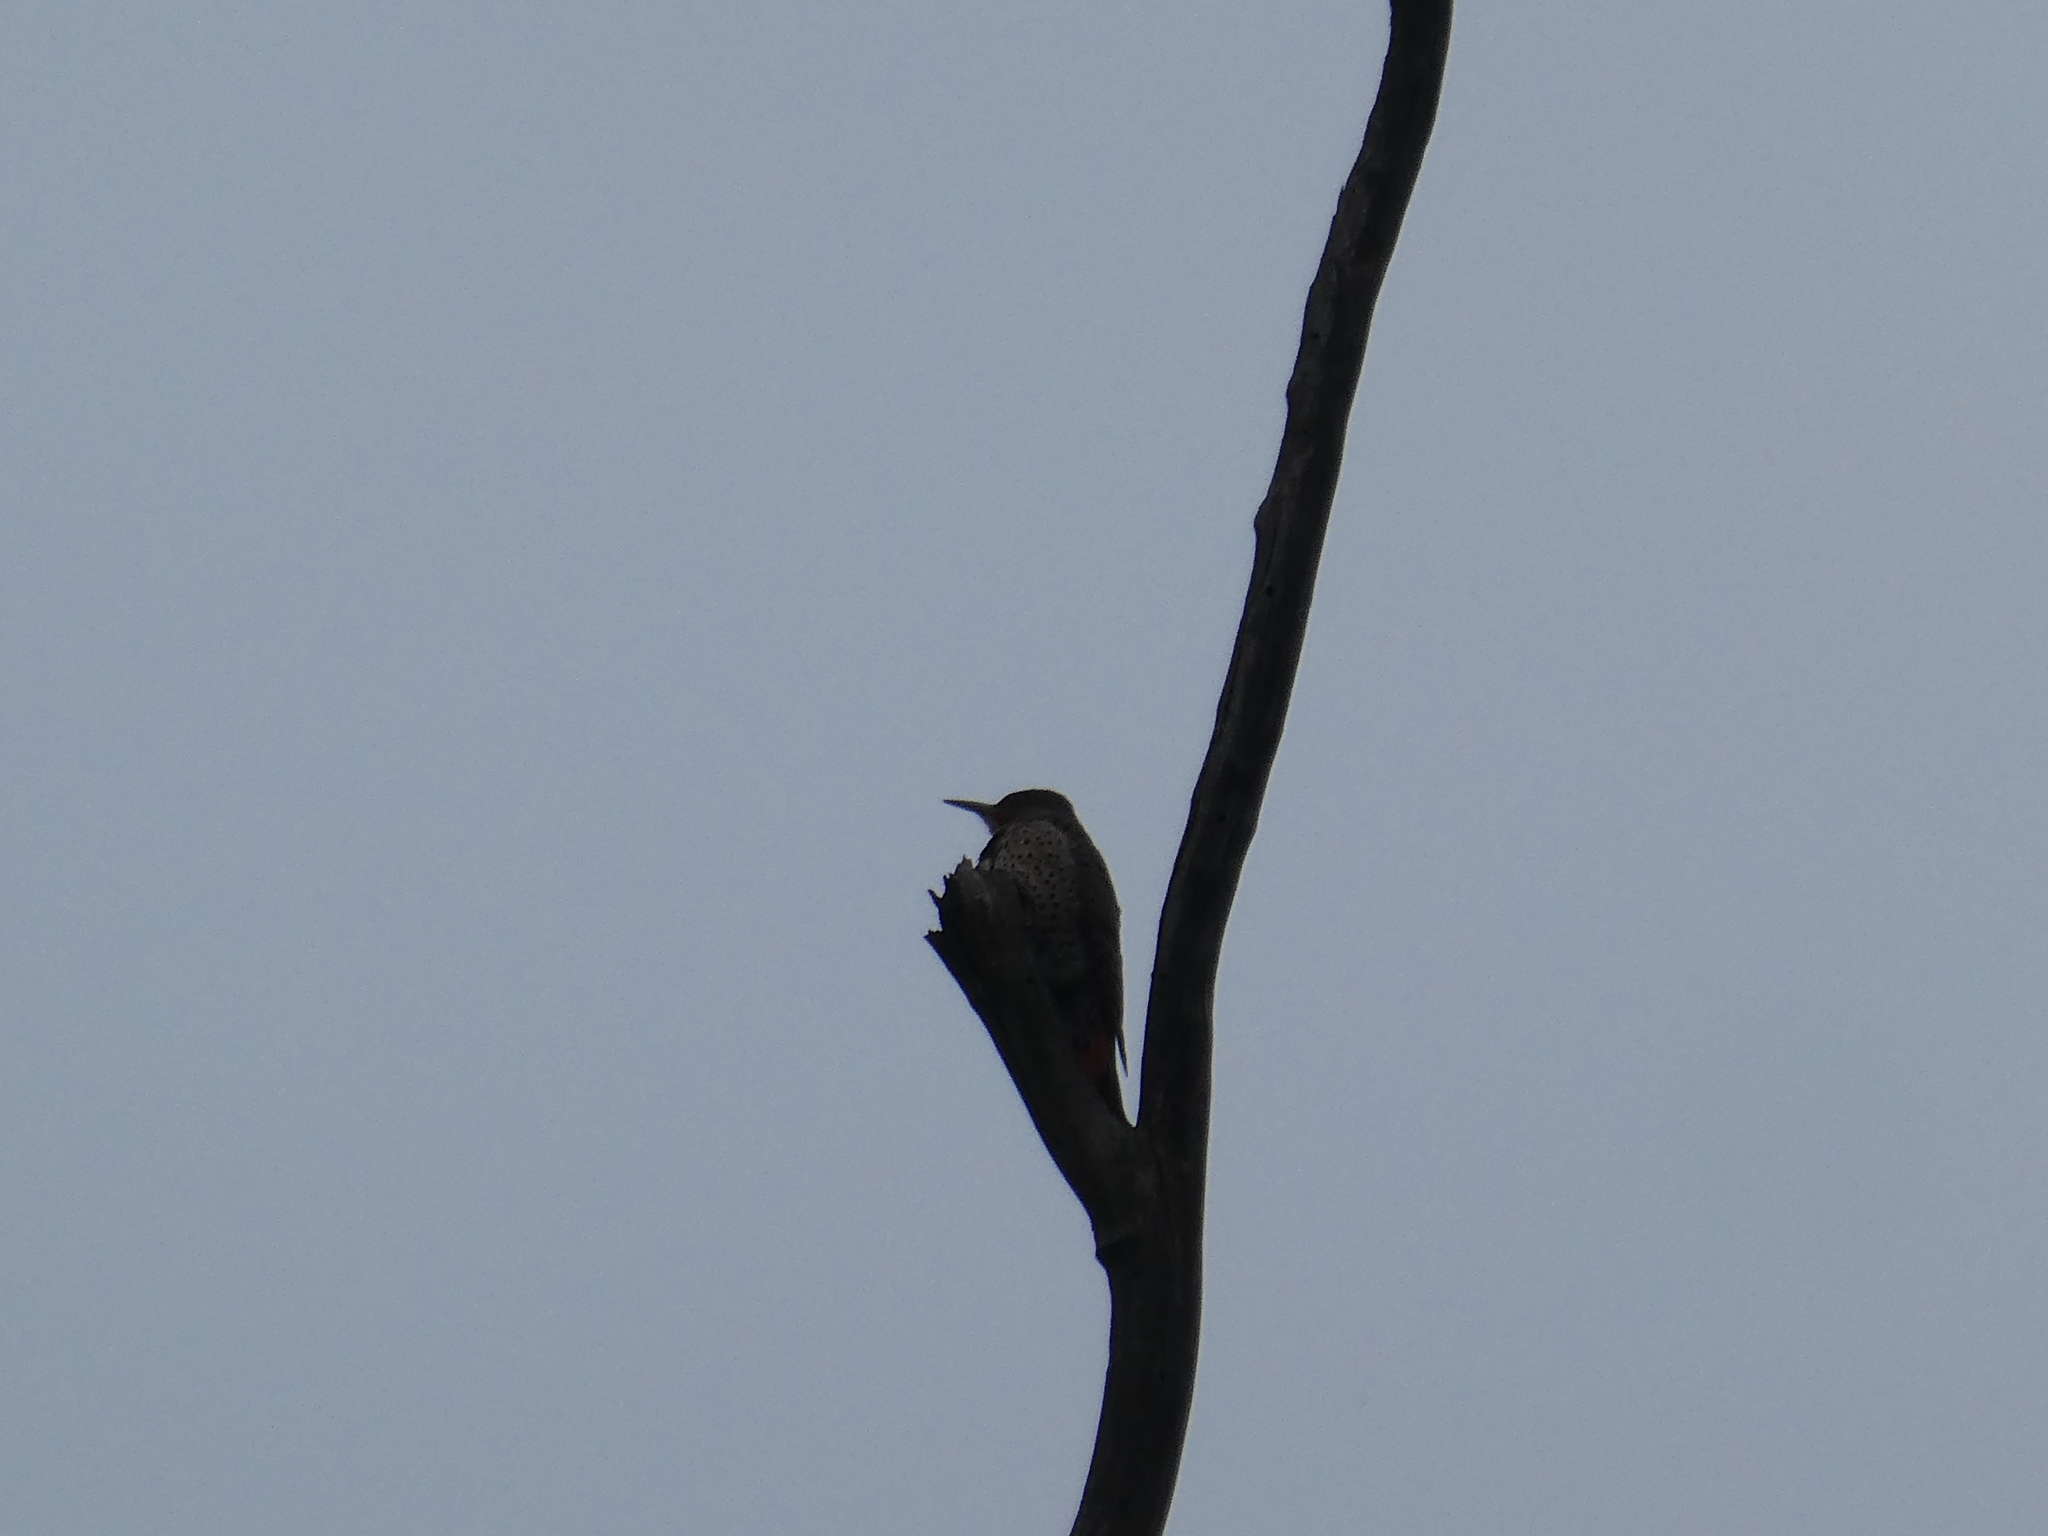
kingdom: Animalia
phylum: Chordata
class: Aves
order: Piciformes
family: Picidae
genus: Colaptes
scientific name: Colaptes auratus
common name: Northern flicker
